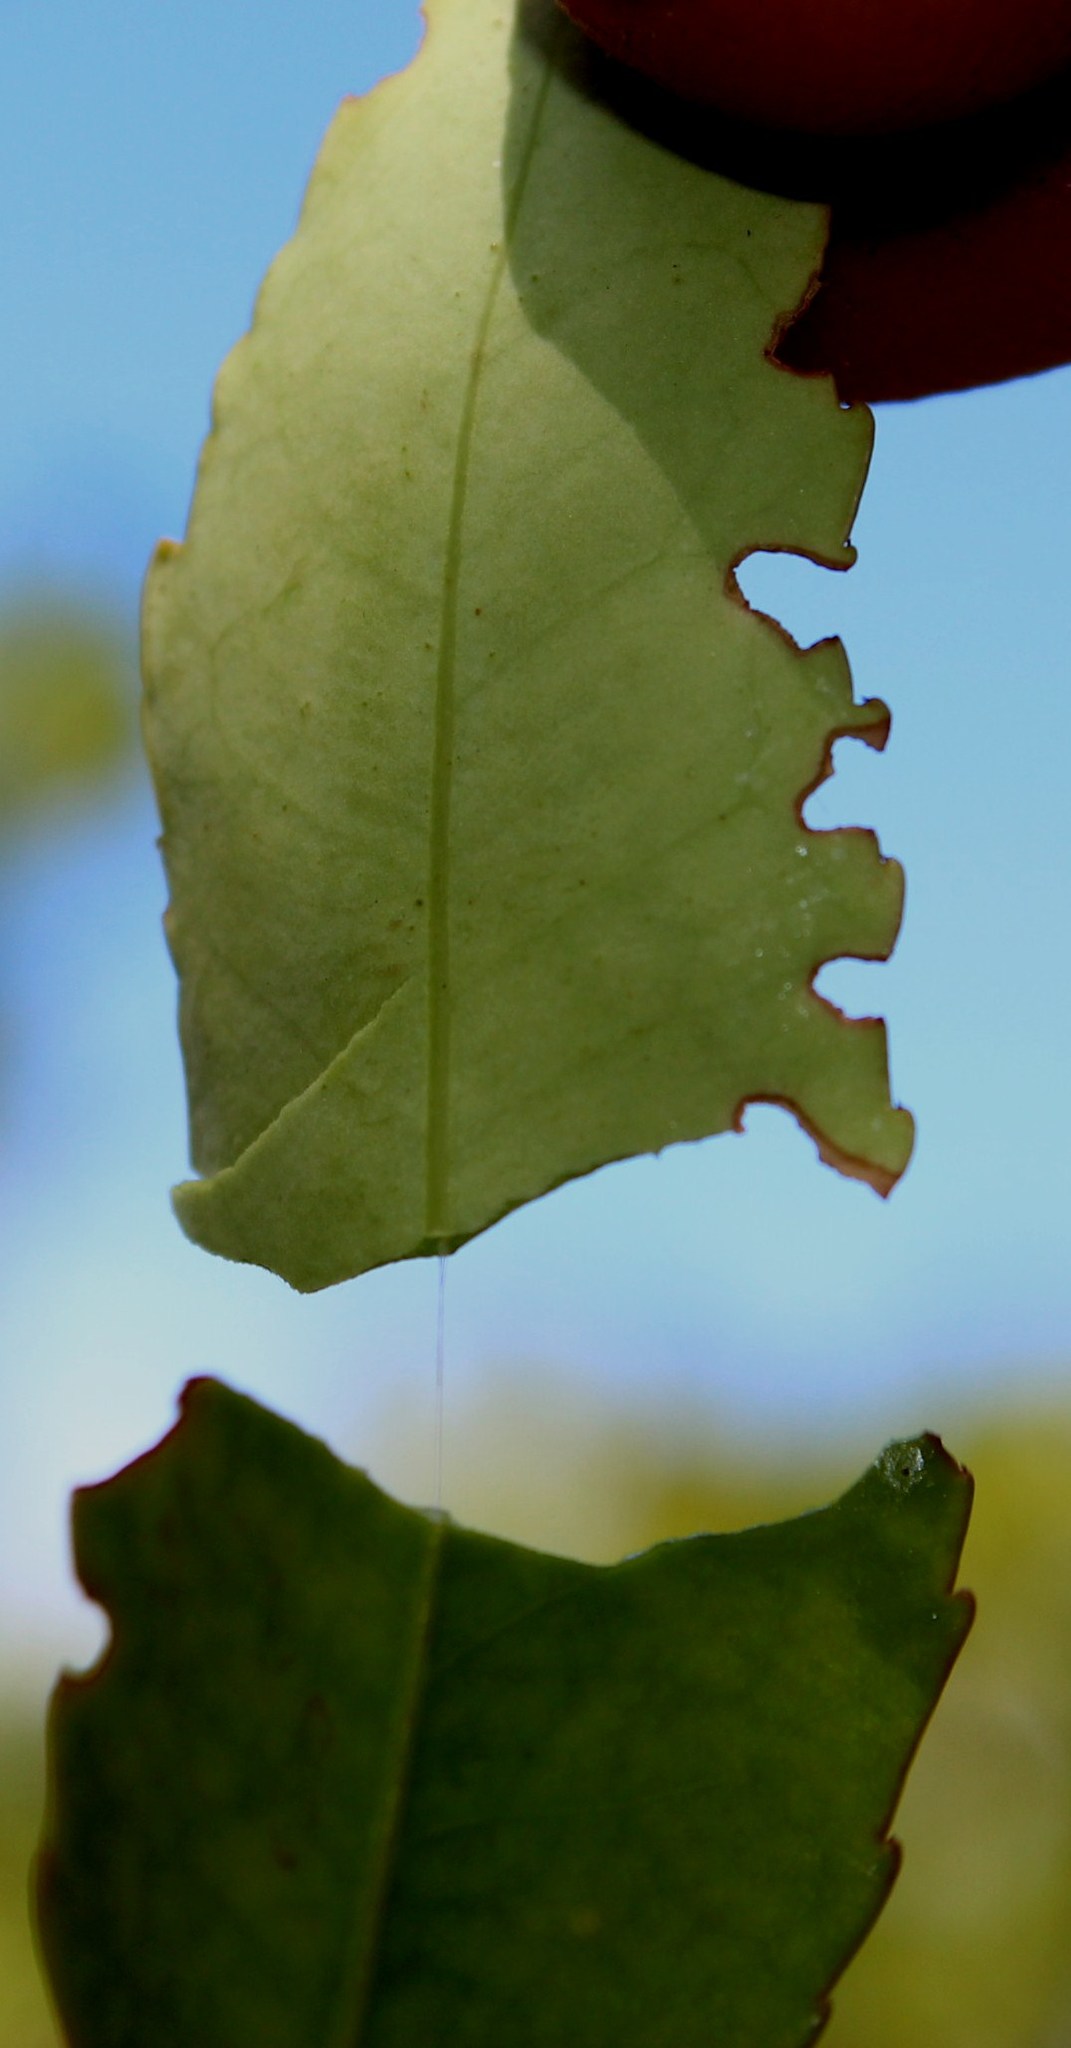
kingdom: Plantae
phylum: Tracheophyta
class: Magnoliopsida
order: Celastrales
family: Celastraceae
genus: Elaeodendron
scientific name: Elaeodendron schinoides
